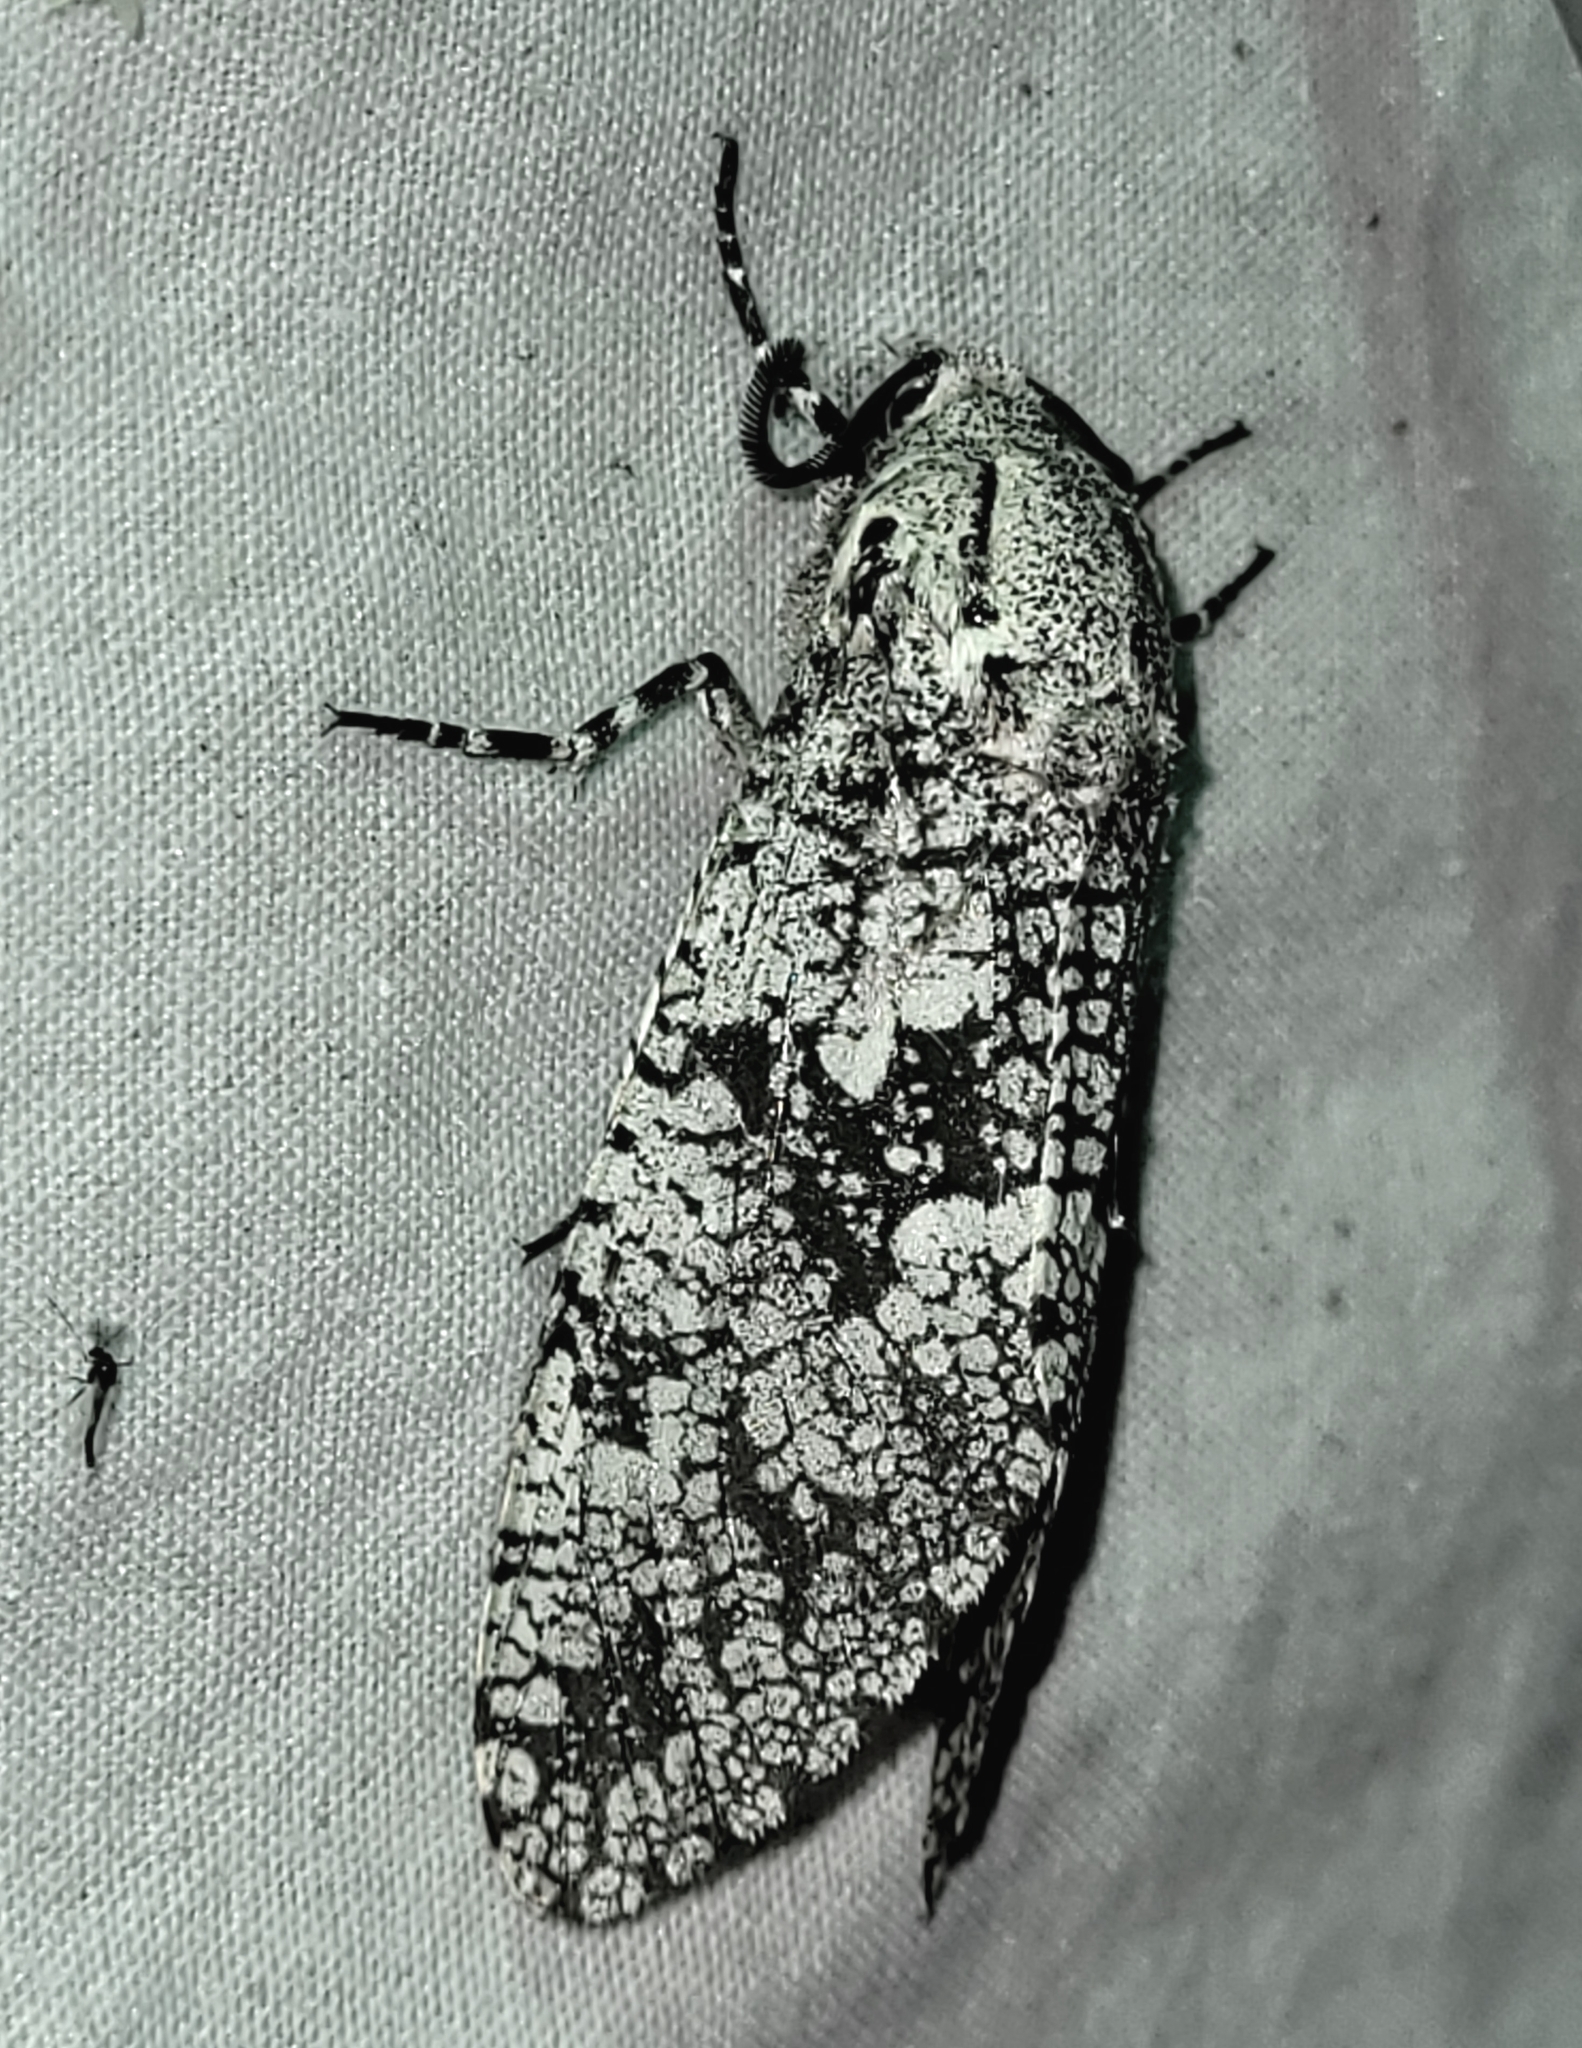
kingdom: Animalia
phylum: Arthropoda
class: Insecta
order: Lepidoptera
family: Cossidae
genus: Prionoxystus
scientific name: Prionoxystus robiniae
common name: Carpenterworm
